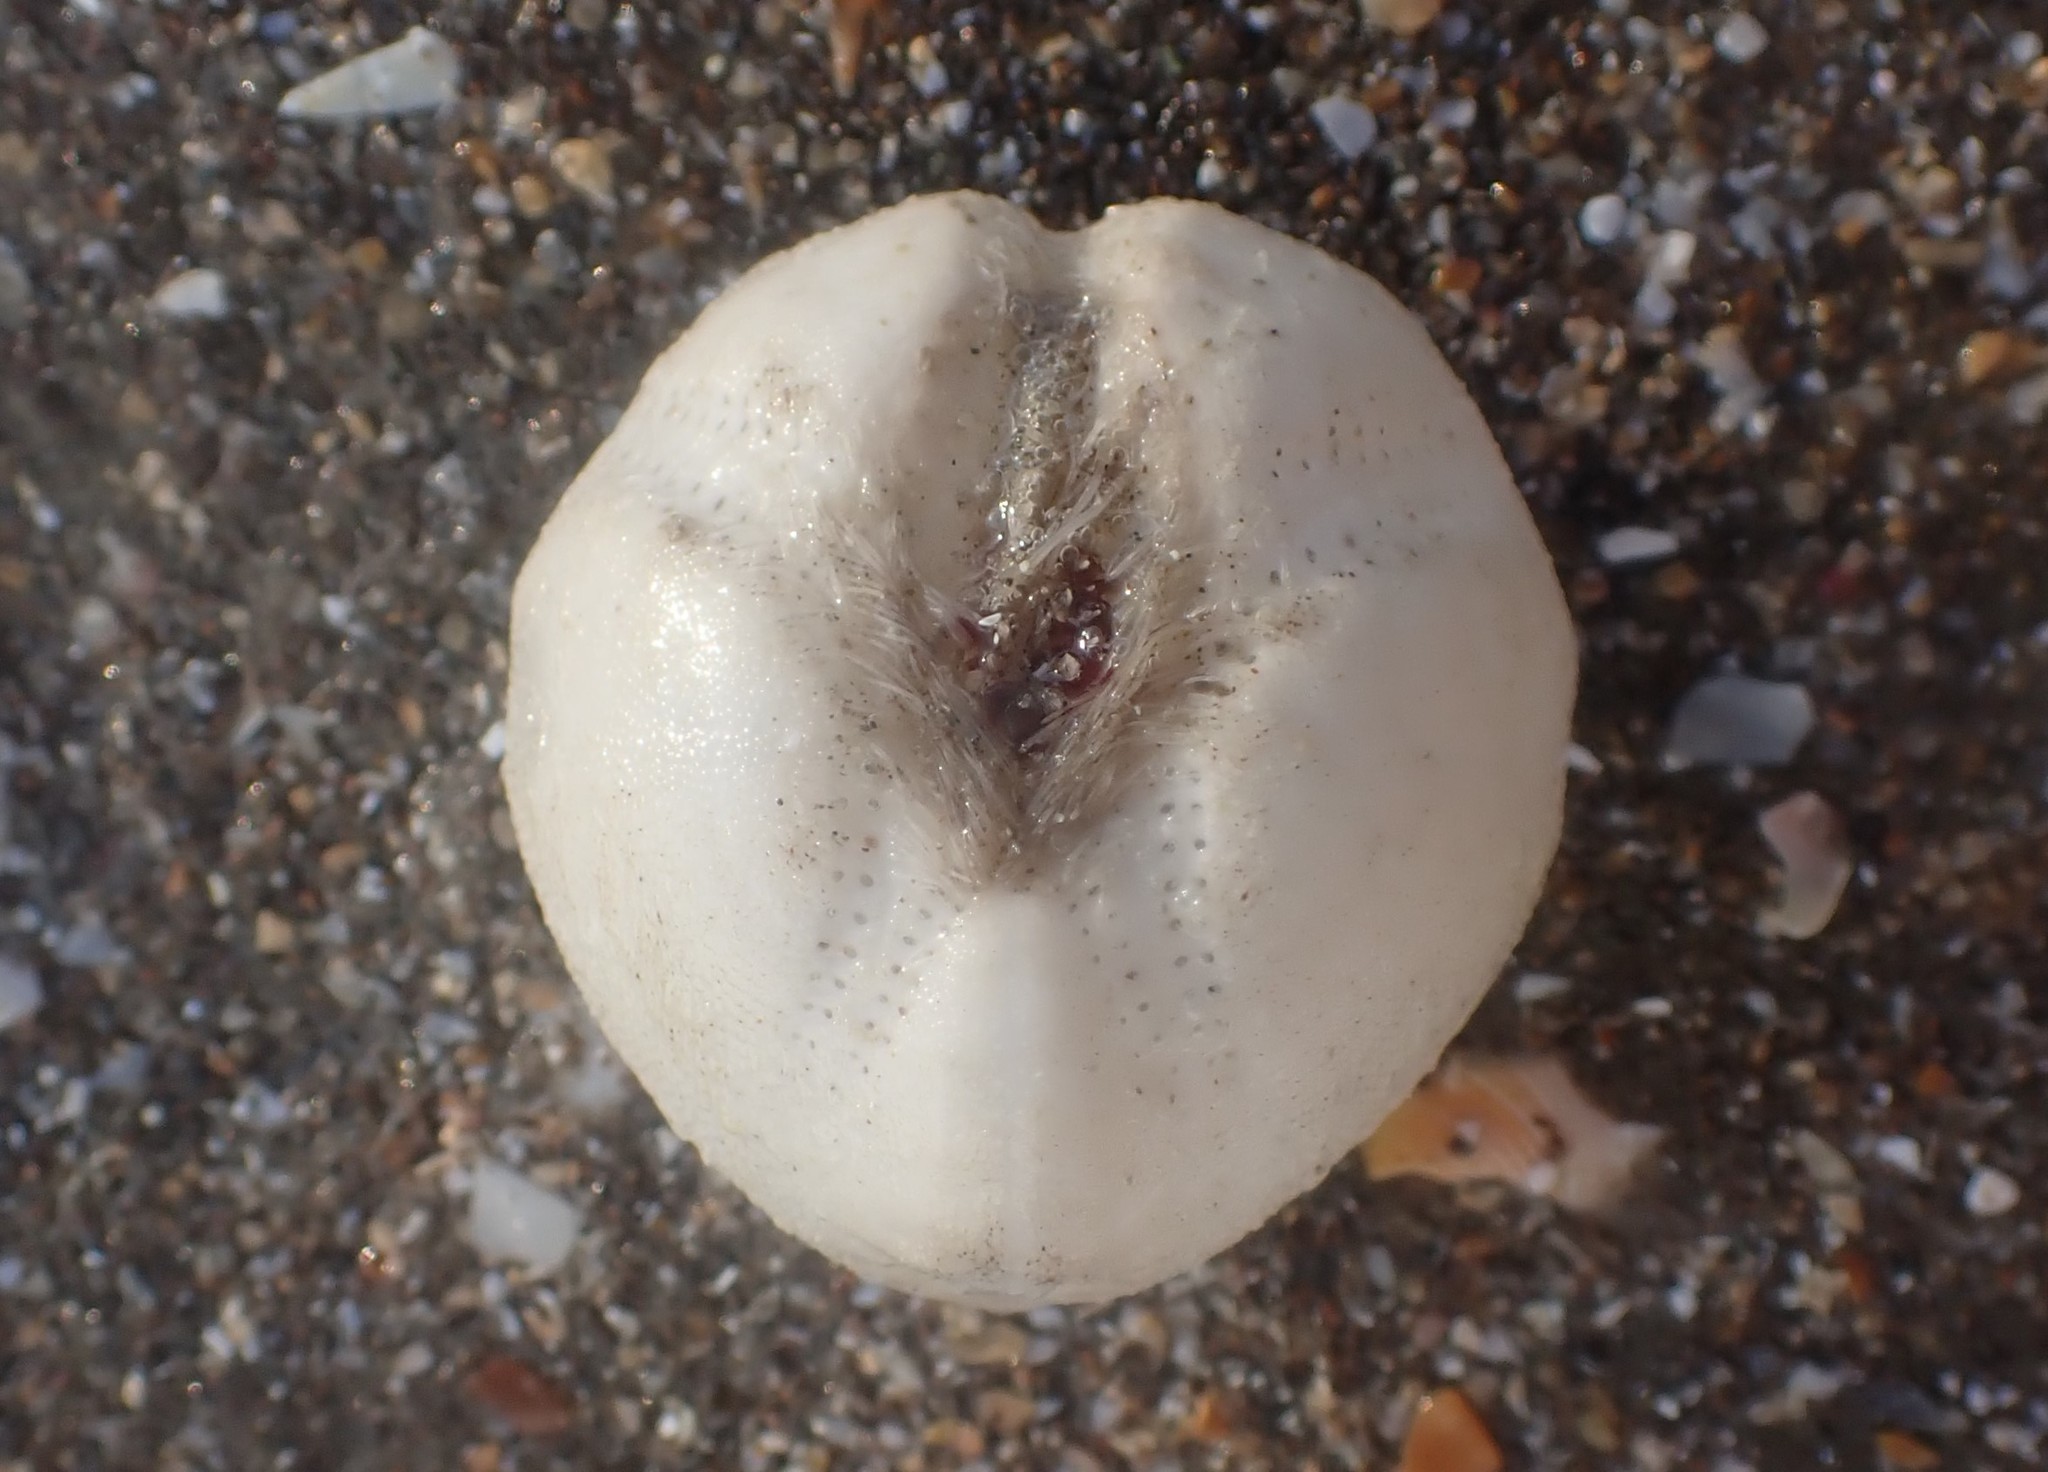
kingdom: Animalia
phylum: Echinodermata
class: Echinoidea
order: Spatangoida
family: Loveniidae
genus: Echinocardium
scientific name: Echinocardium cordatum
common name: Heart-urchin
